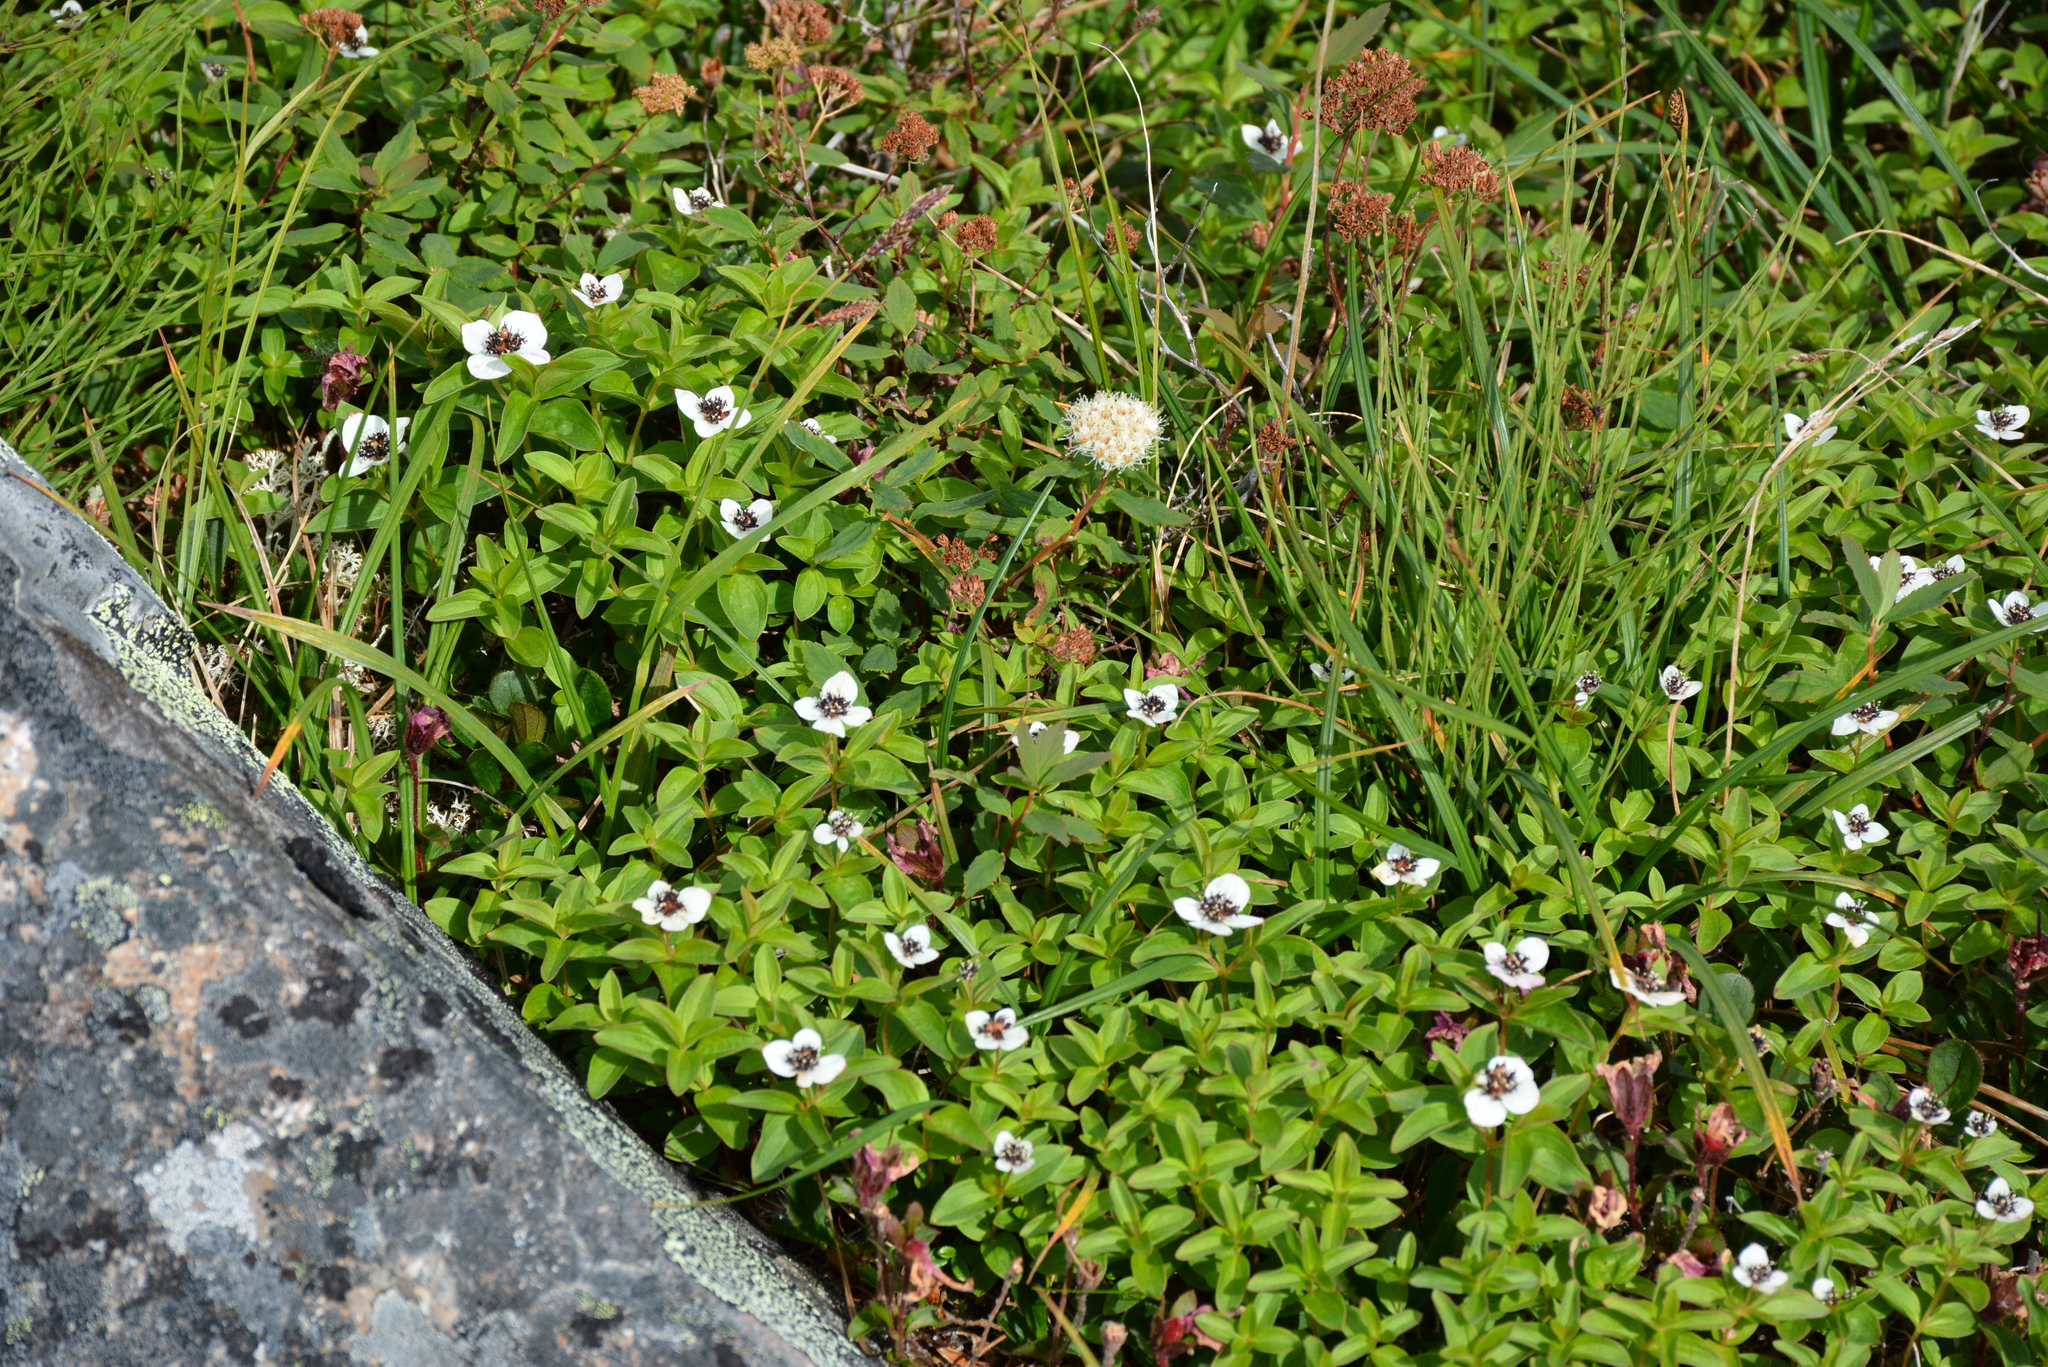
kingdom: Plantae
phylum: Tracheophyta
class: Magnoliopsida
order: Cornales
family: Cornaceae
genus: Cornus
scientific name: Cornus suecica
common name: Dwarf cornel
